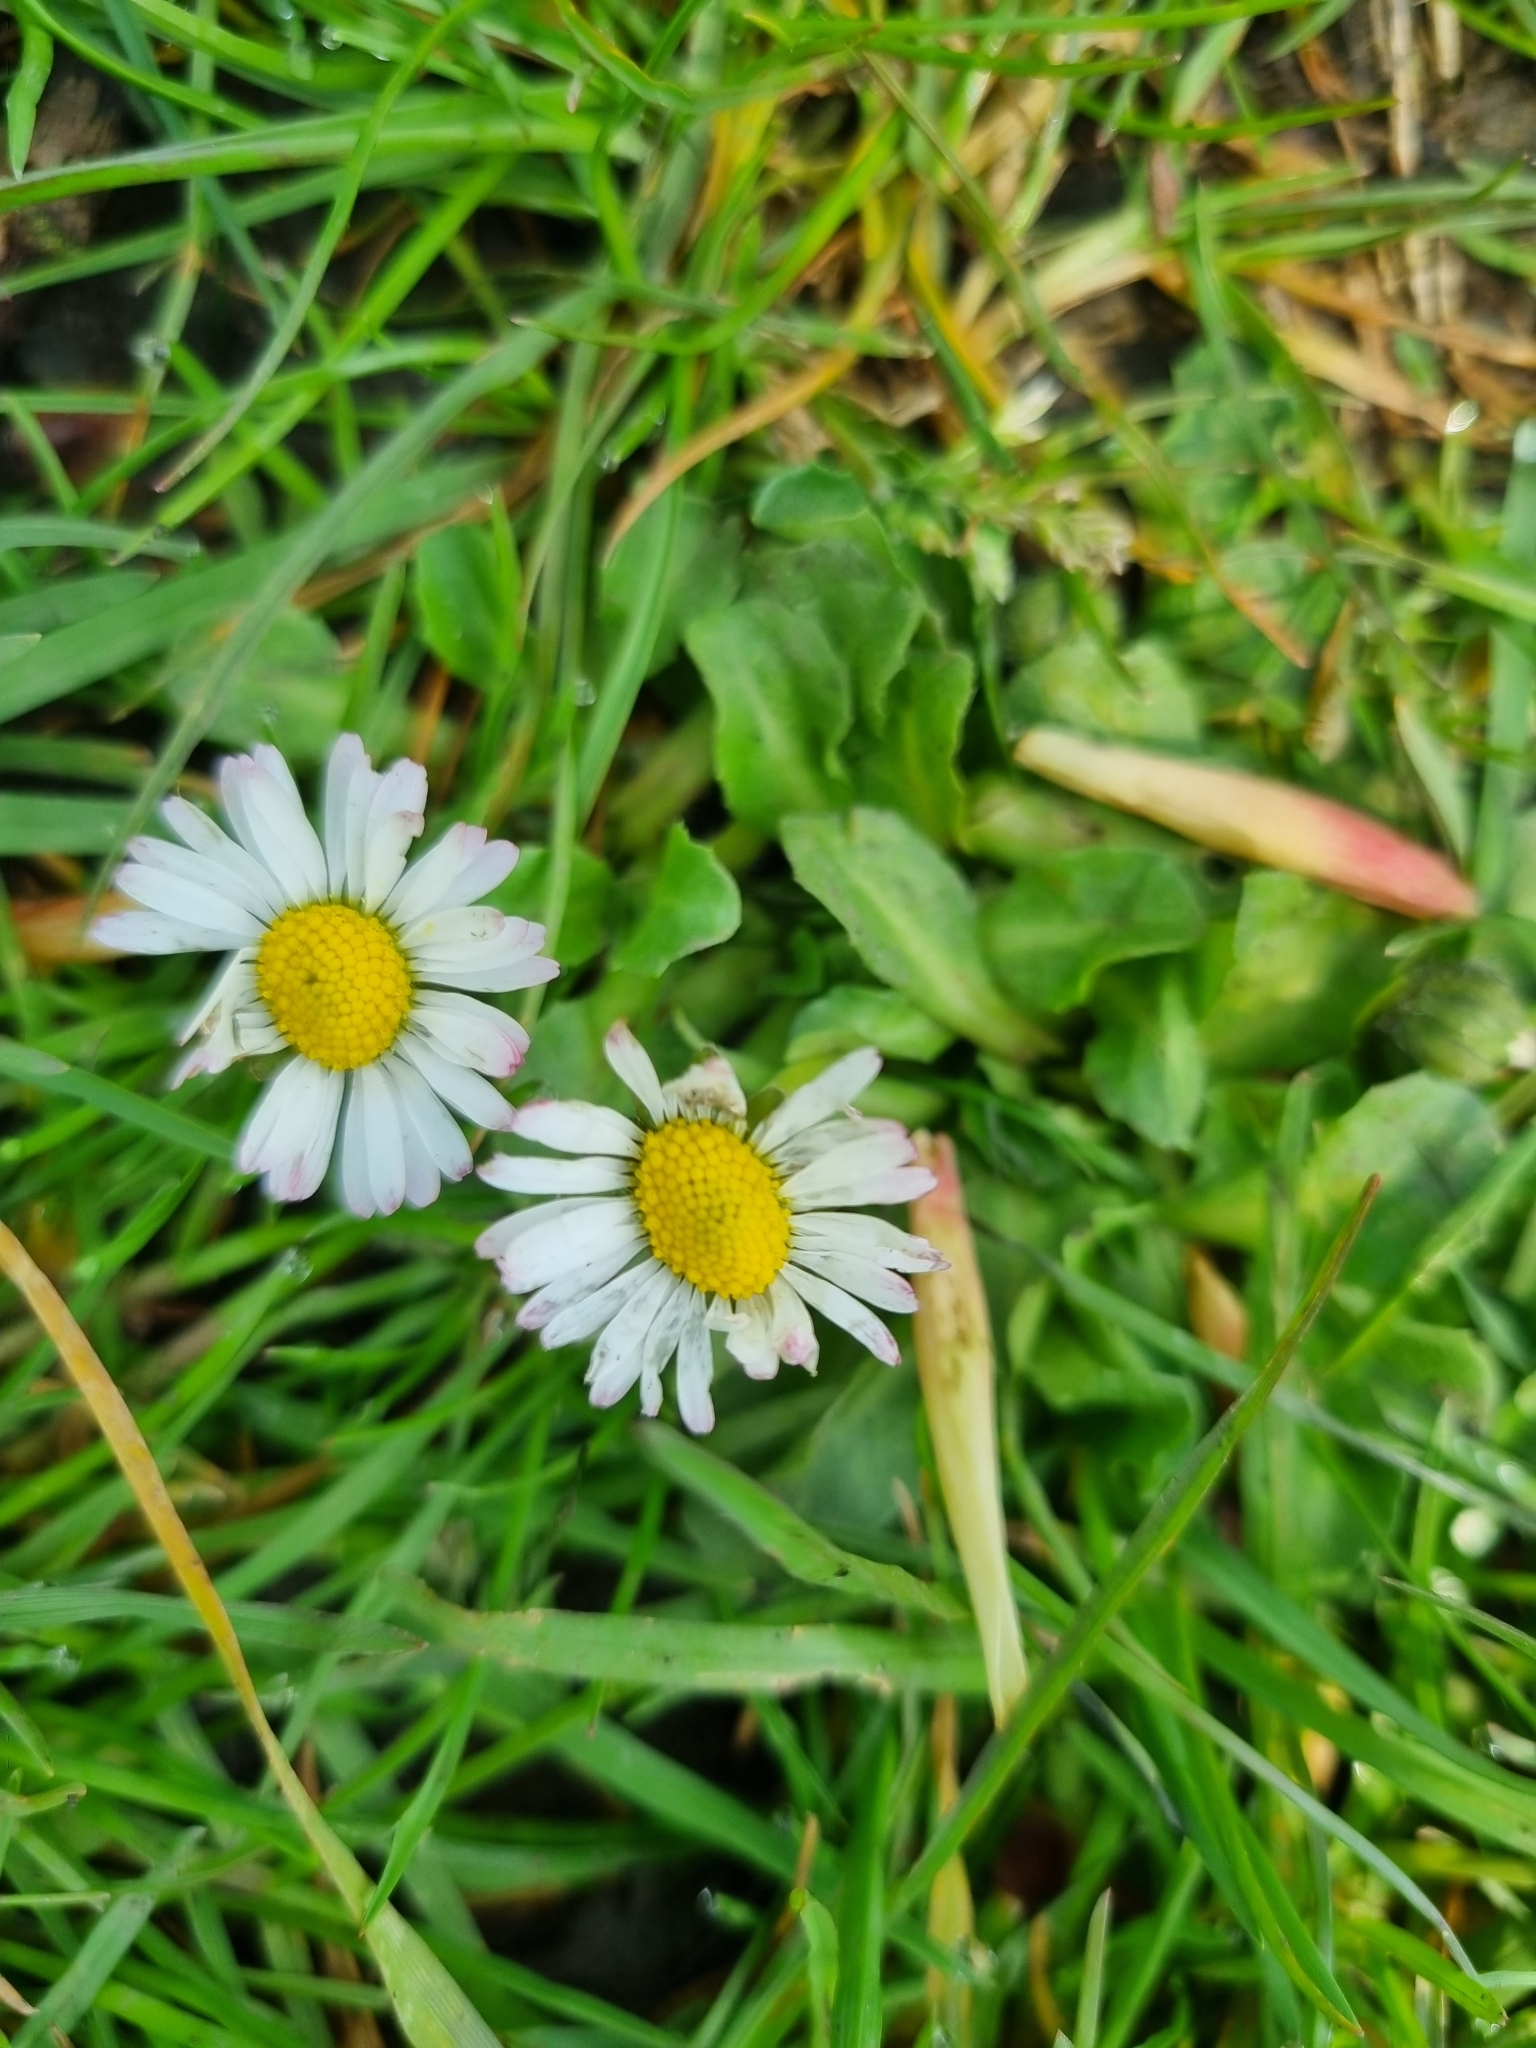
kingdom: Plantae
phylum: Tracheophyta
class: Magnoliopsida
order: Asterales
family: Asteraceae
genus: Bellis
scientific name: Bellis perennis
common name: Lawndaisy
